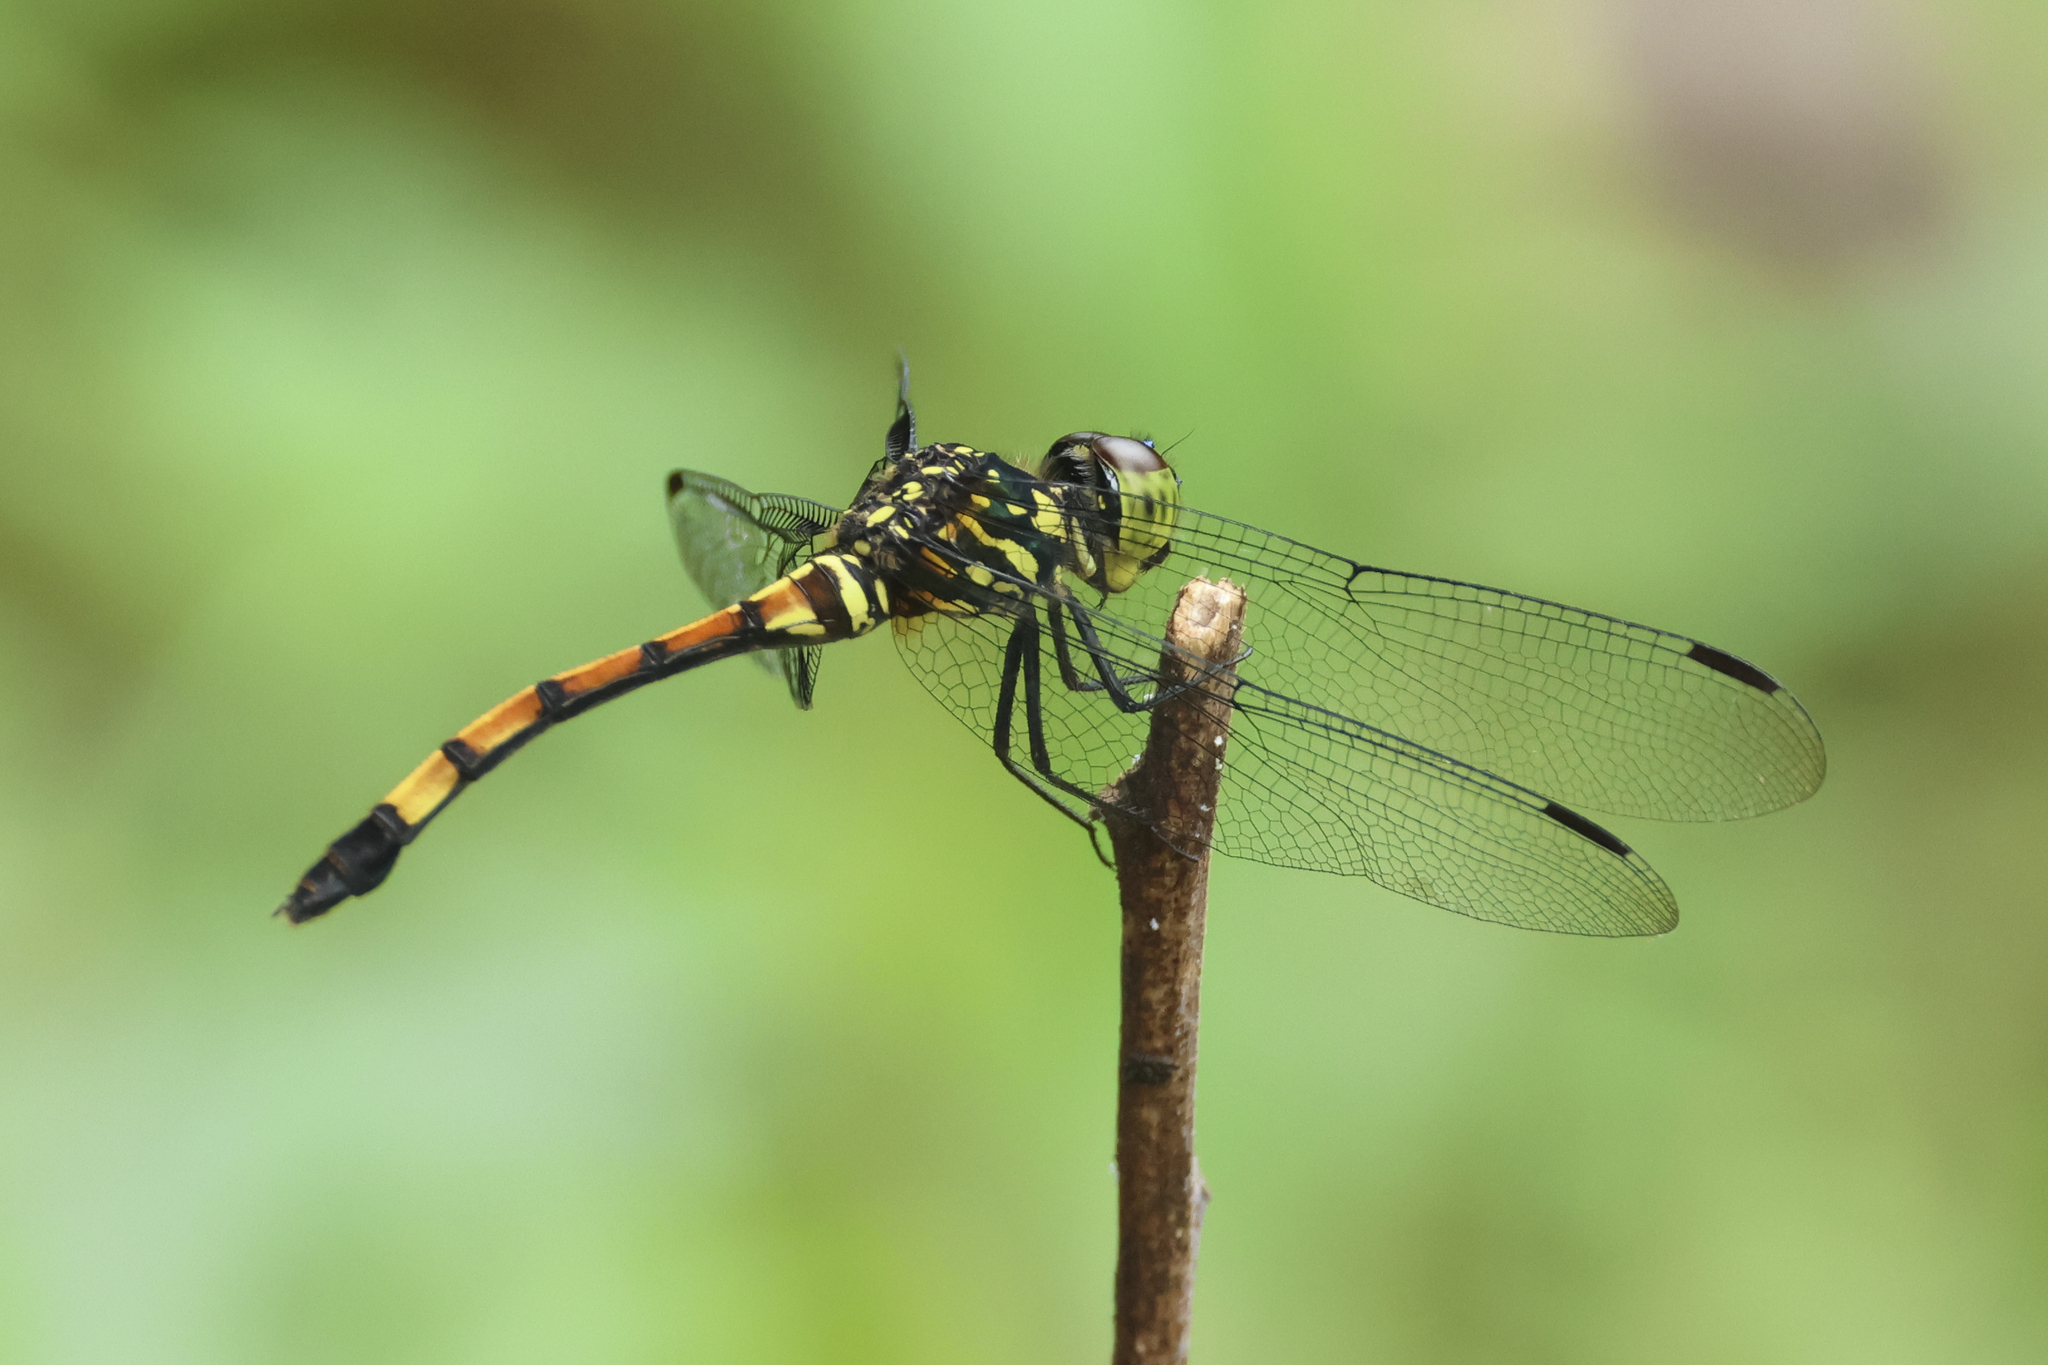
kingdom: Animalia
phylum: Arthropoda
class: Insecta
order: Odonata
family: Libellulidae
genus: Agrionoptera
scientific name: Agrionoptera insignis
